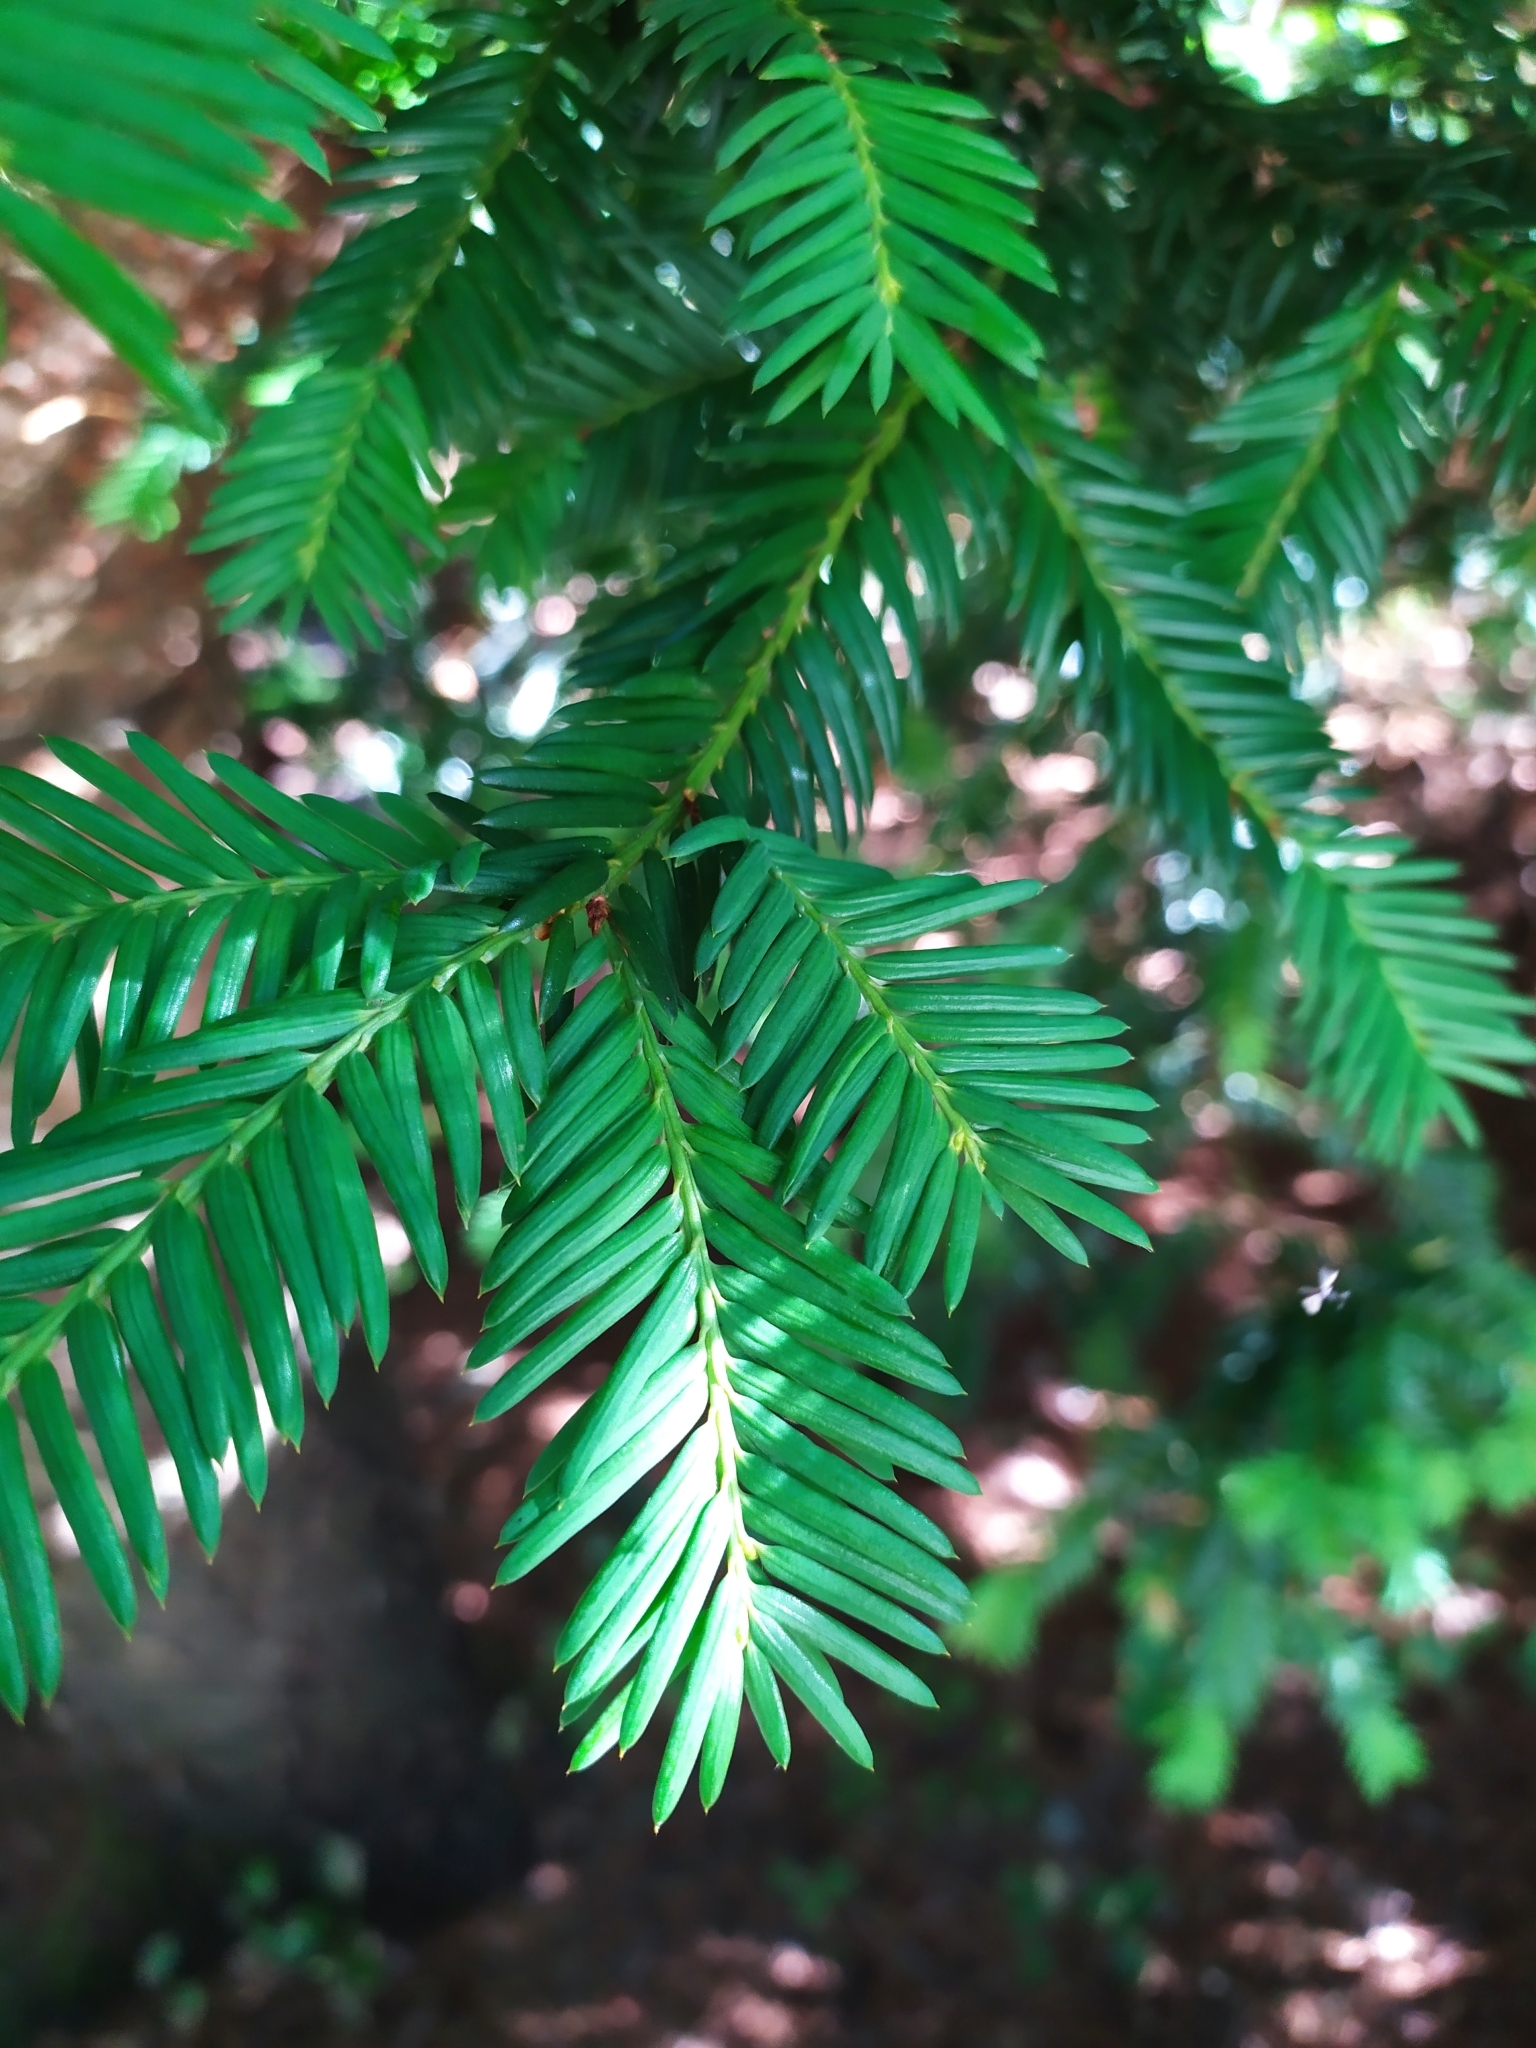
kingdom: Plantae
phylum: Tracheophyta
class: Pinopsida
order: Pinales
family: Taxaceae
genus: Taxus
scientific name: Taxus baccata
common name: Yew
